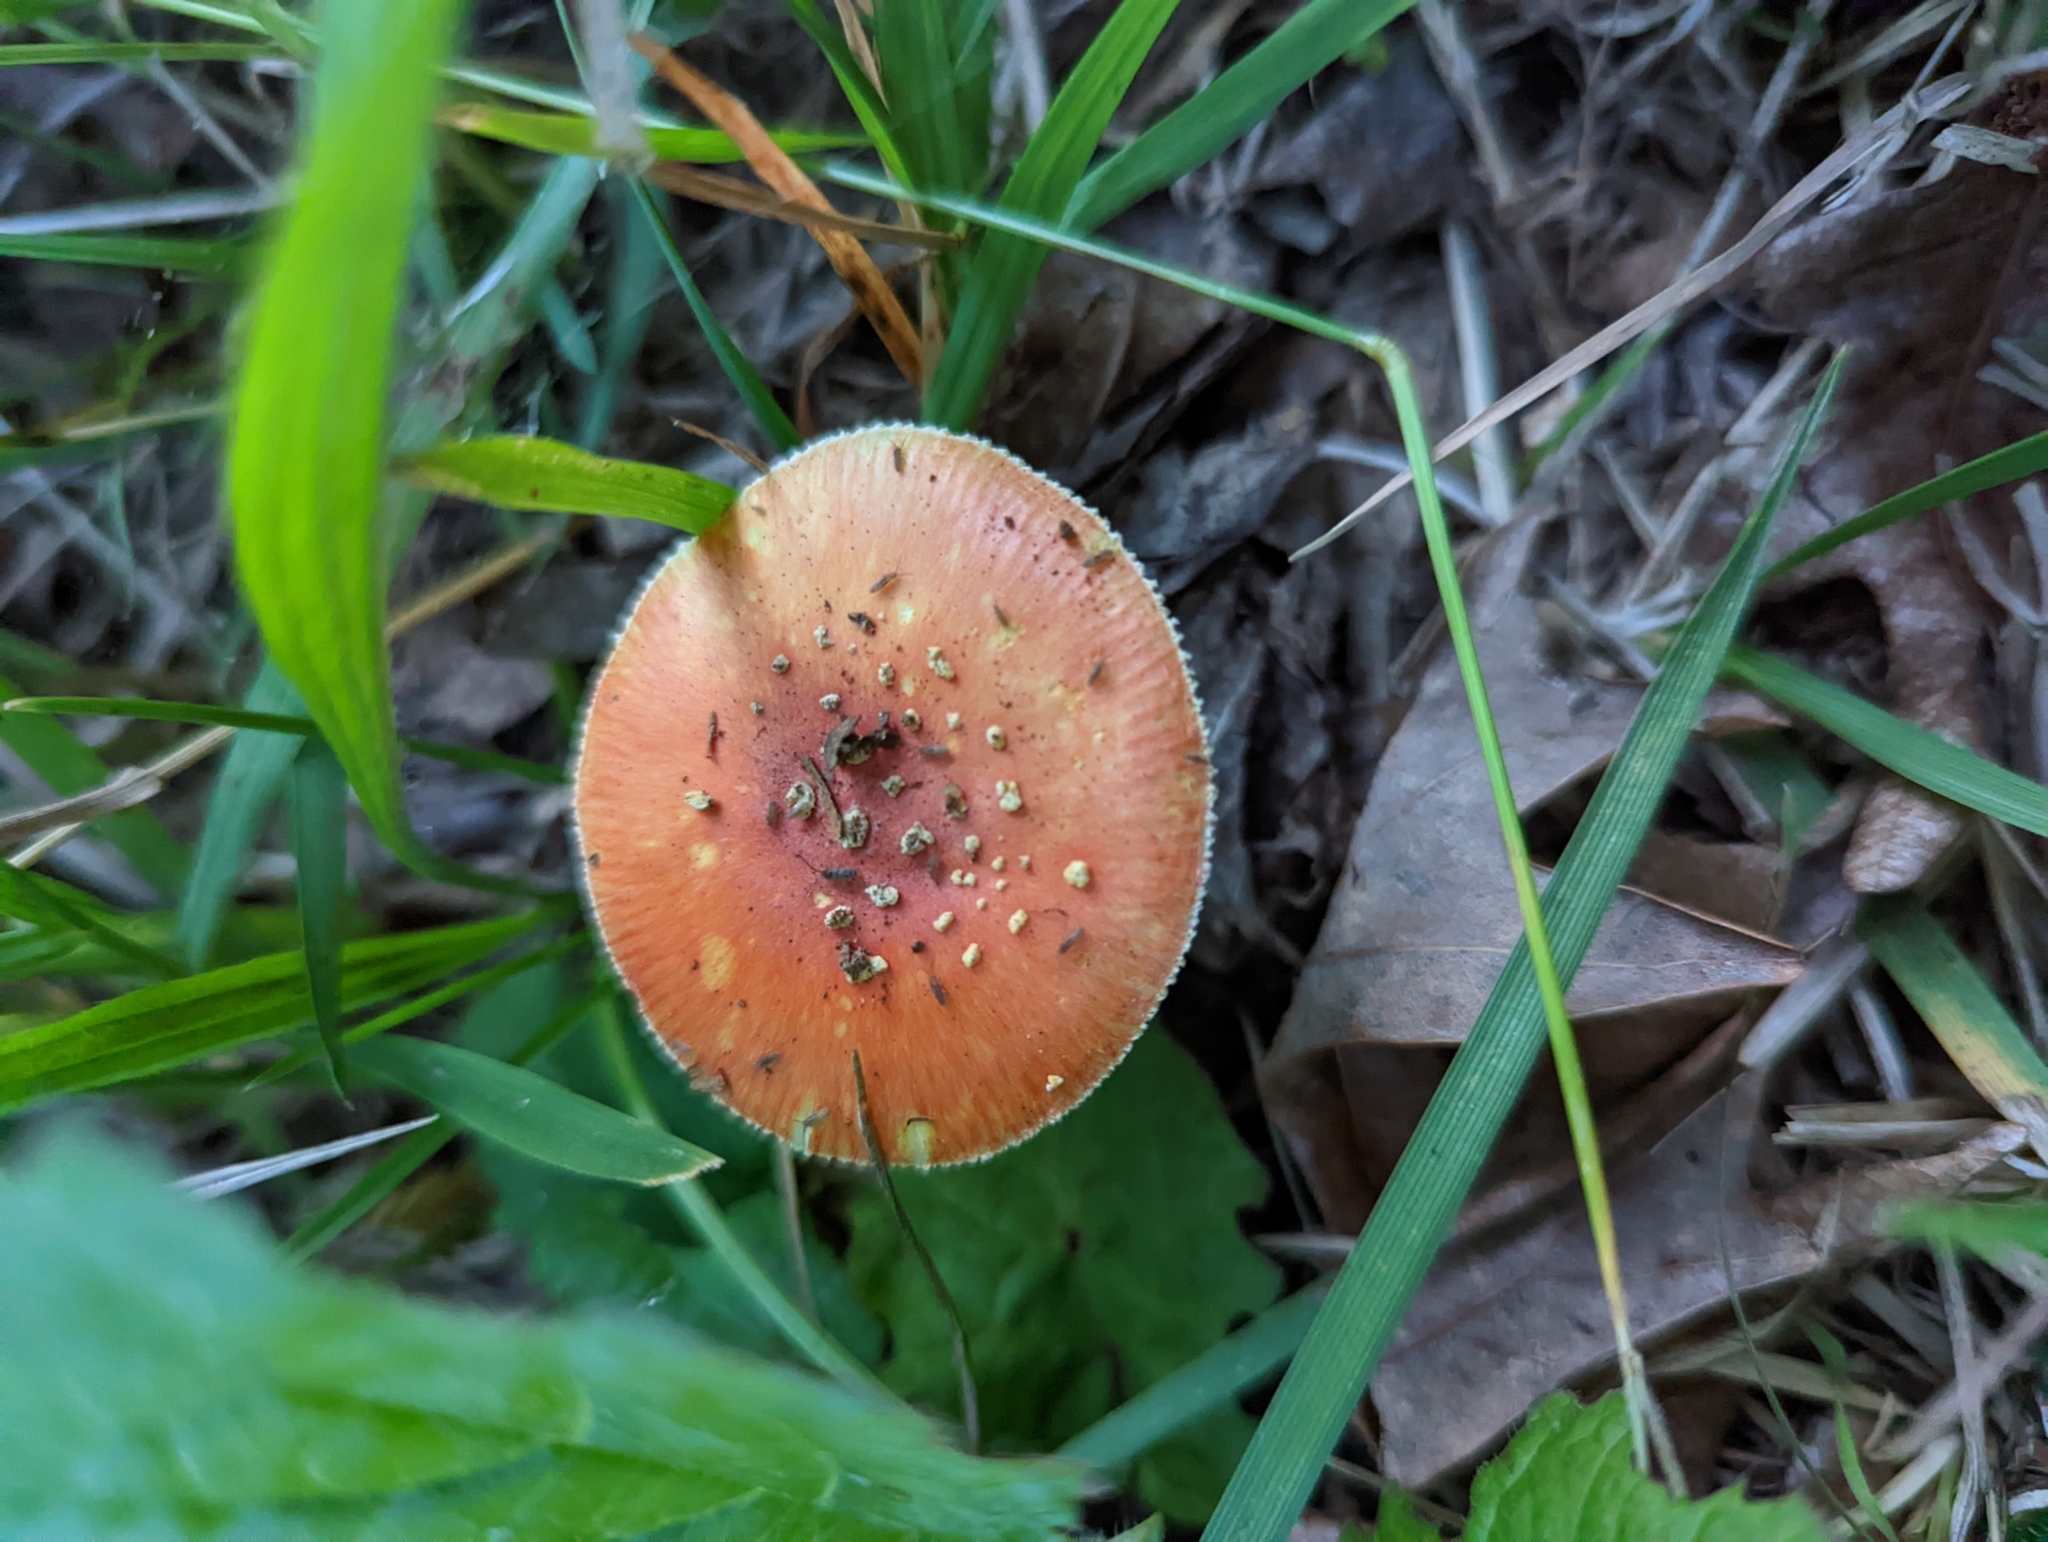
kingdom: Fungi
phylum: Basidiomycota
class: Agaricomycetes
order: Agaricales
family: Amanitaceae
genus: Amanita
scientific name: Amanita parcivolvata
